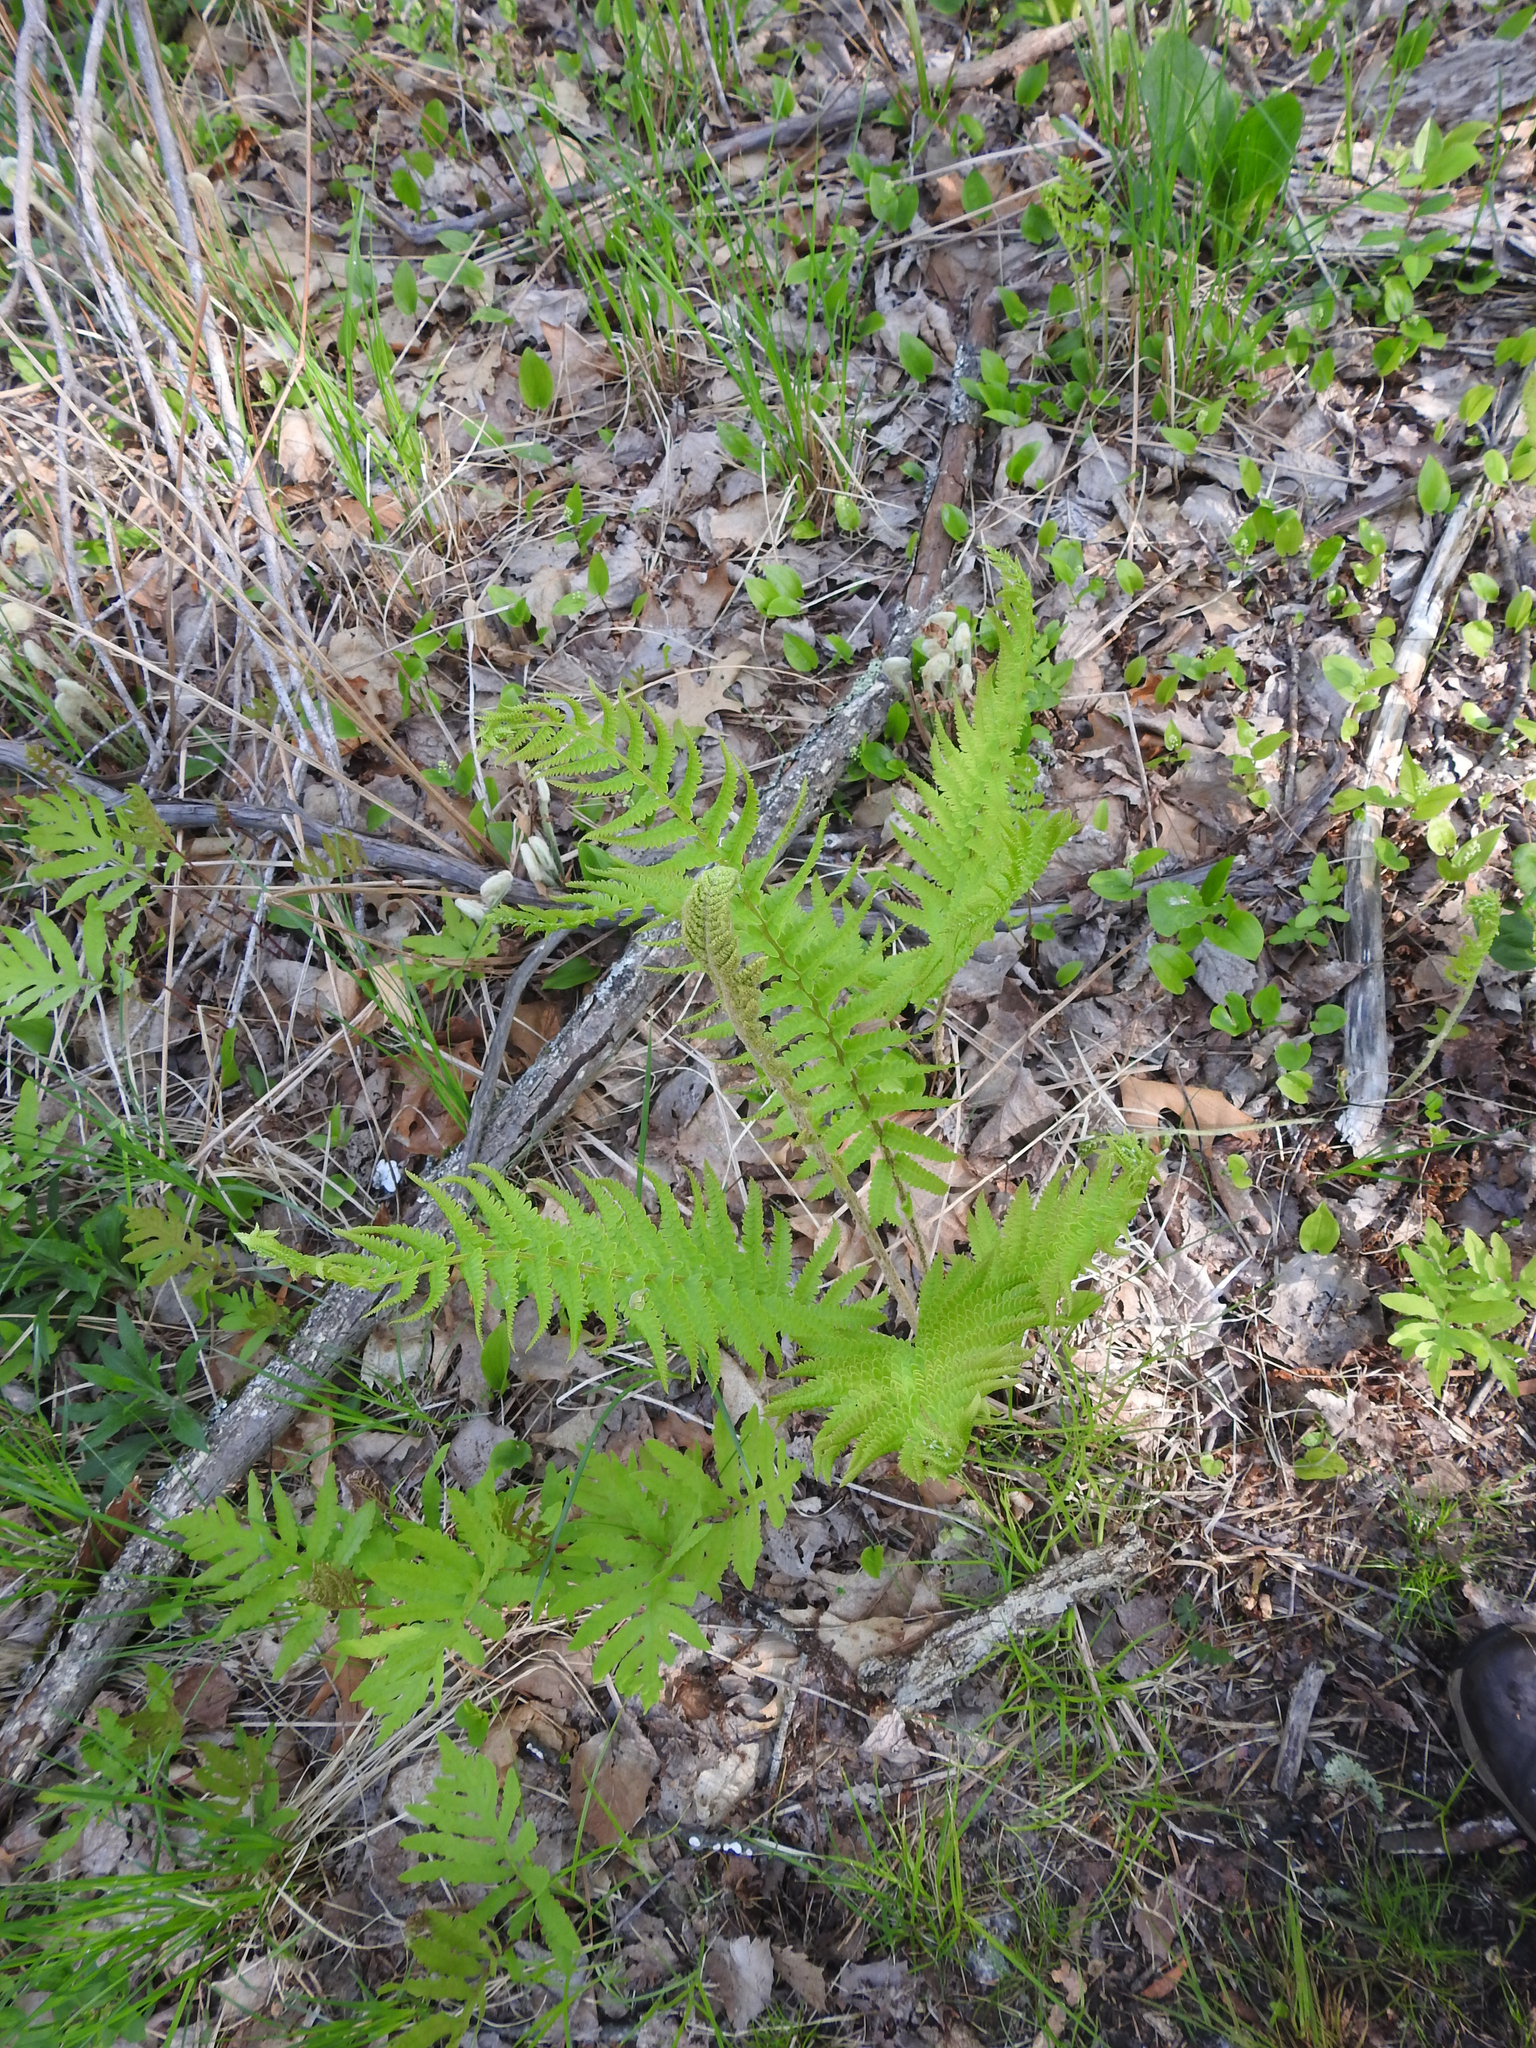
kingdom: Plantae
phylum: Tracheophyta
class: Polypodiopsida
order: Osmundales
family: Osmundaceae
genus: Osmundastrum
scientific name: Osmundastrum cinnamomeum
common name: Cinnamon fern
